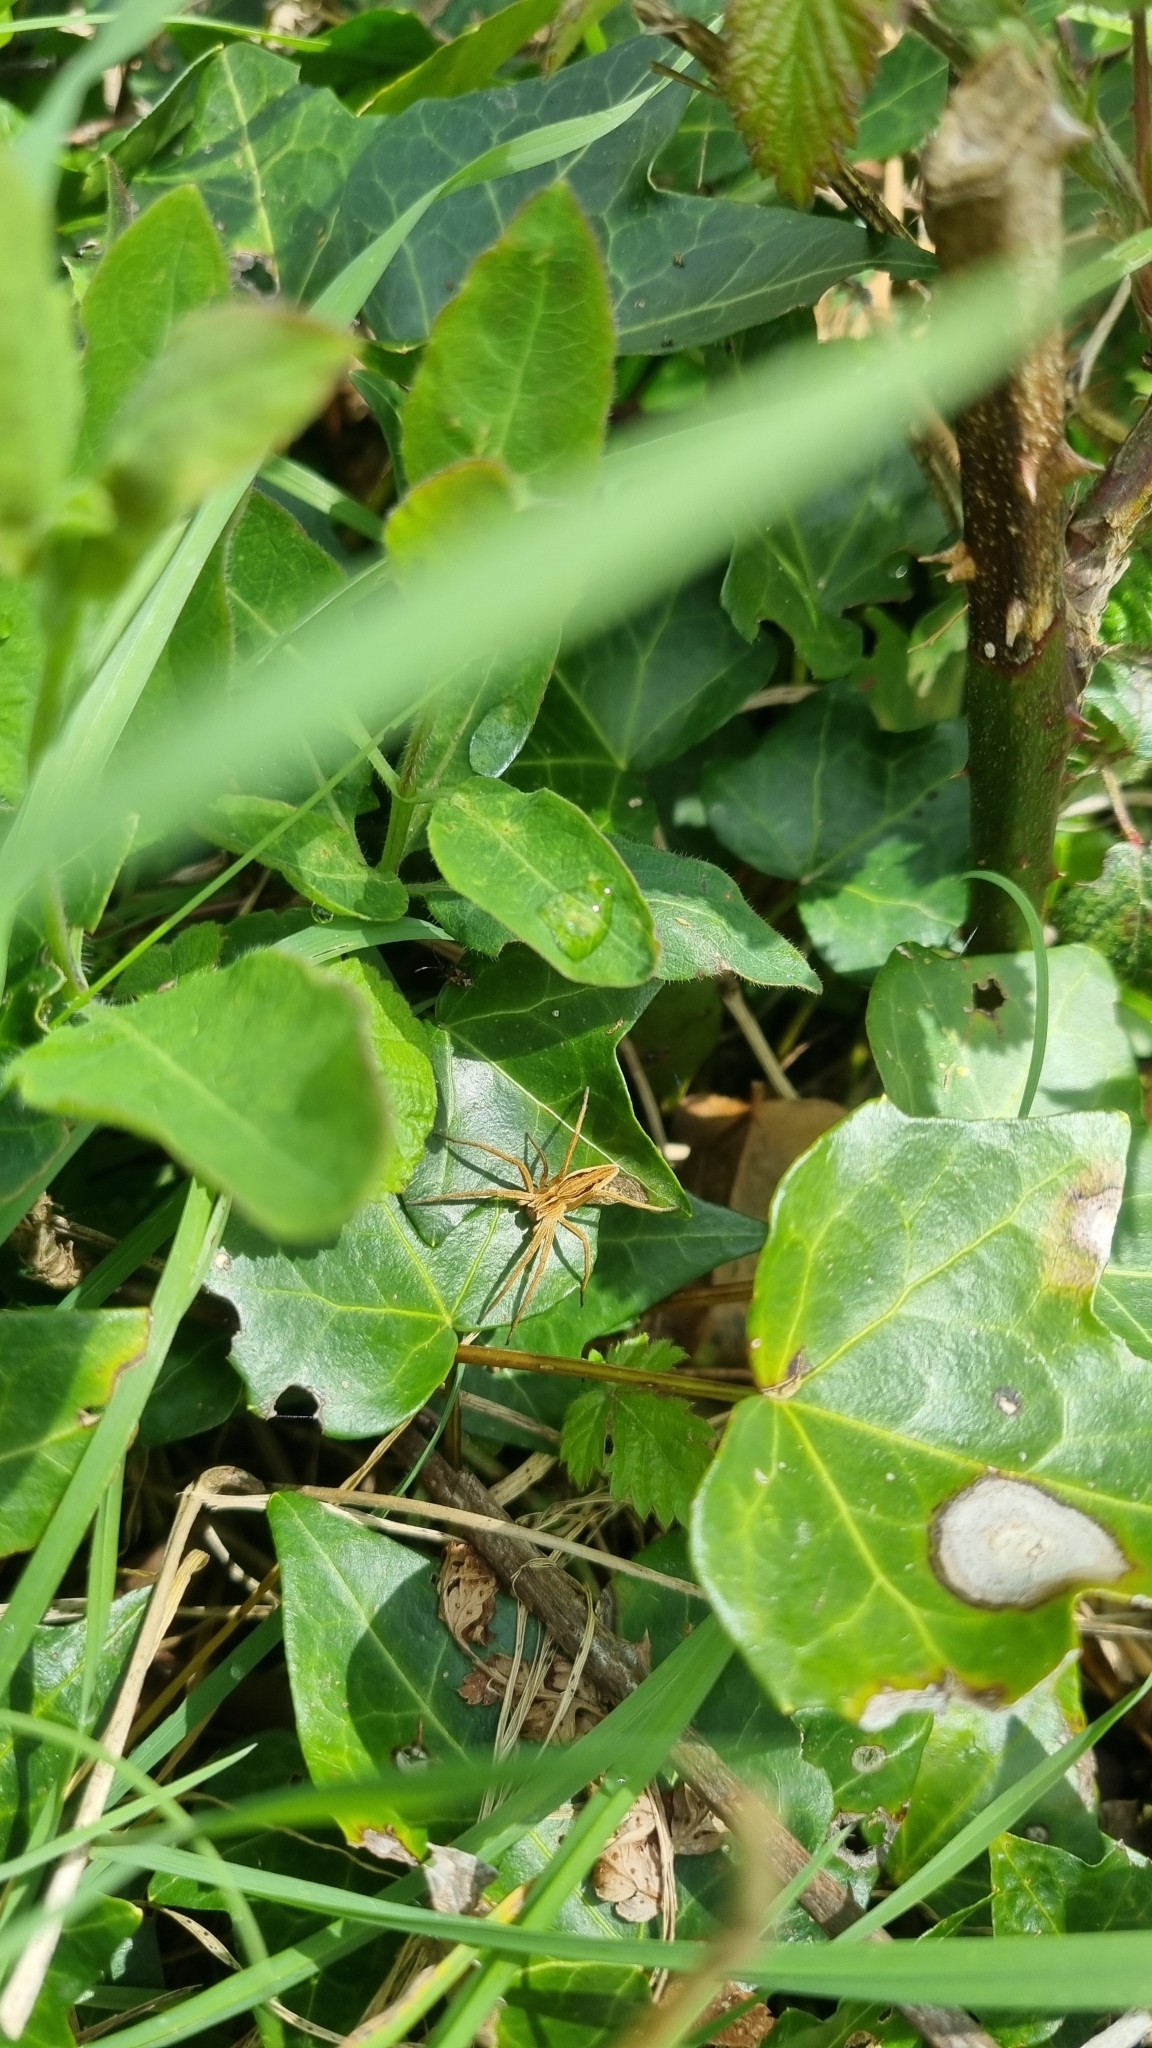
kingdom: Animalia
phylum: Arthropoda
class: Arachnida
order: Araneae
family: Pisauridae
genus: Pisaura
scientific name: Pisaura mirabilis
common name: Tent spider
